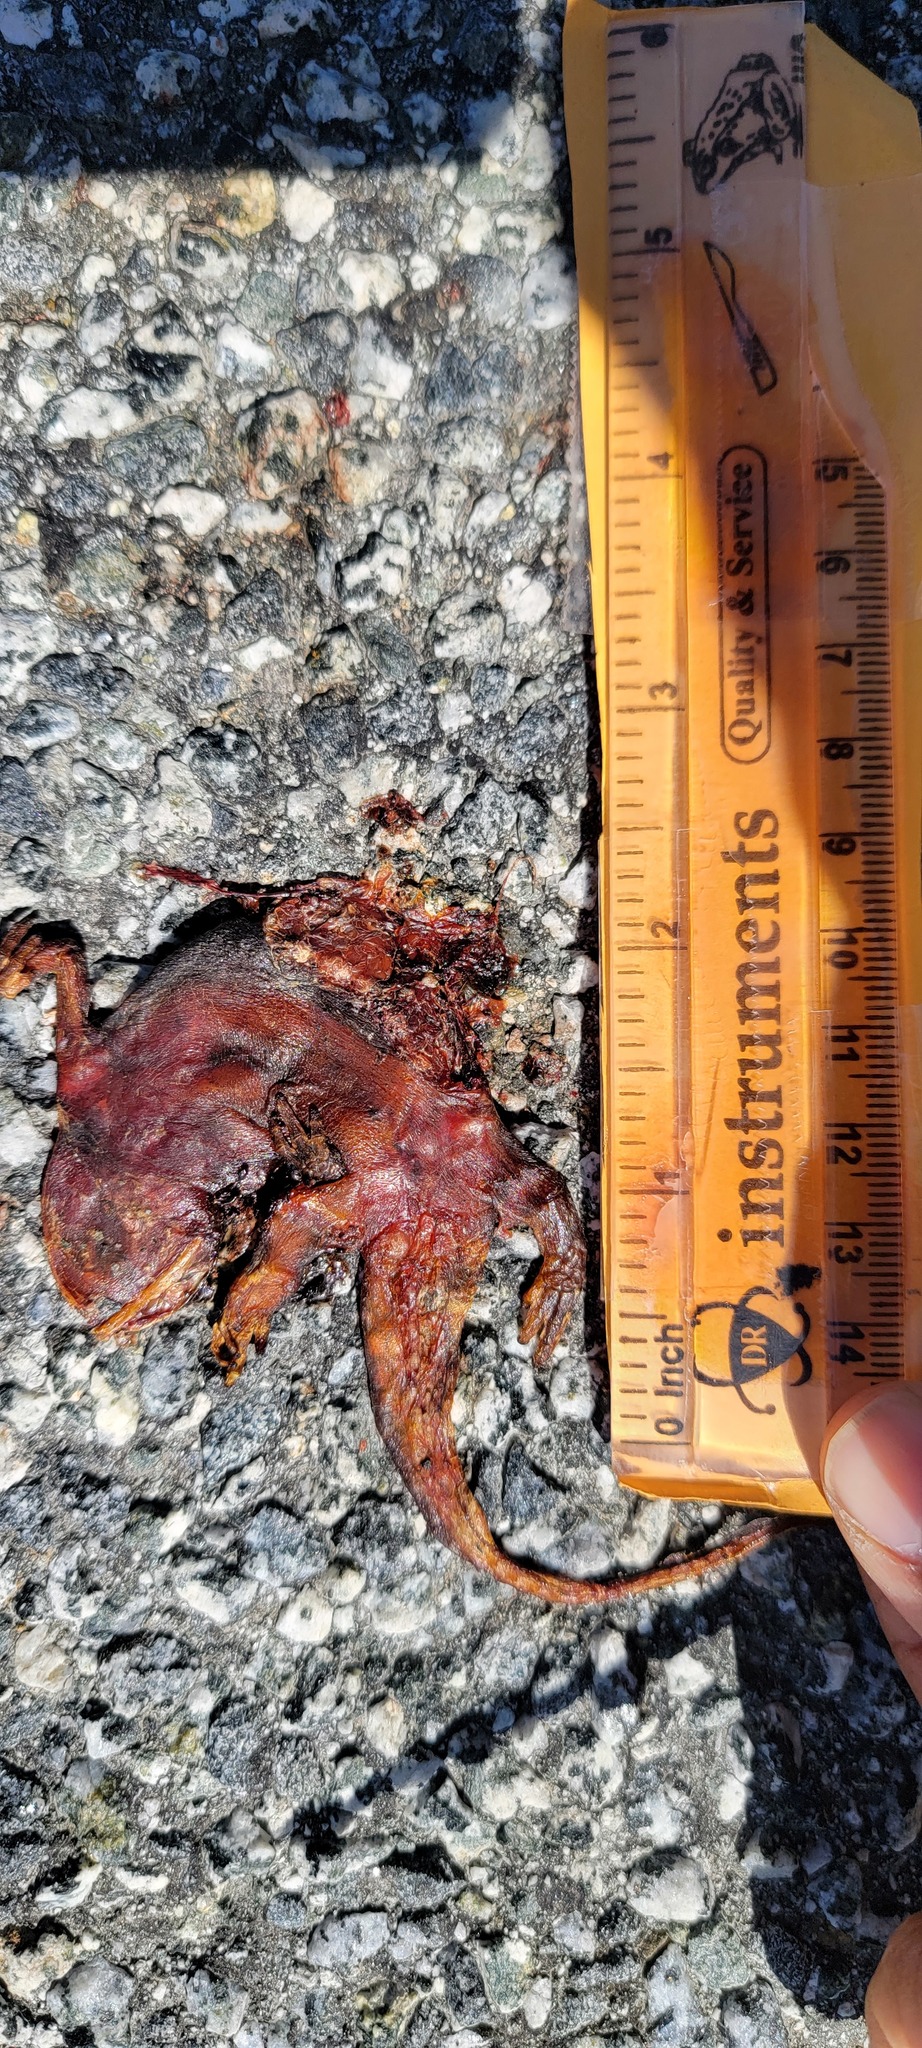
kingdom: Animalia
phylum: Chordata
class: Amphibia
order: Caudata
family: Salamandridae
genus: Taricha
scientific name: Taricha
